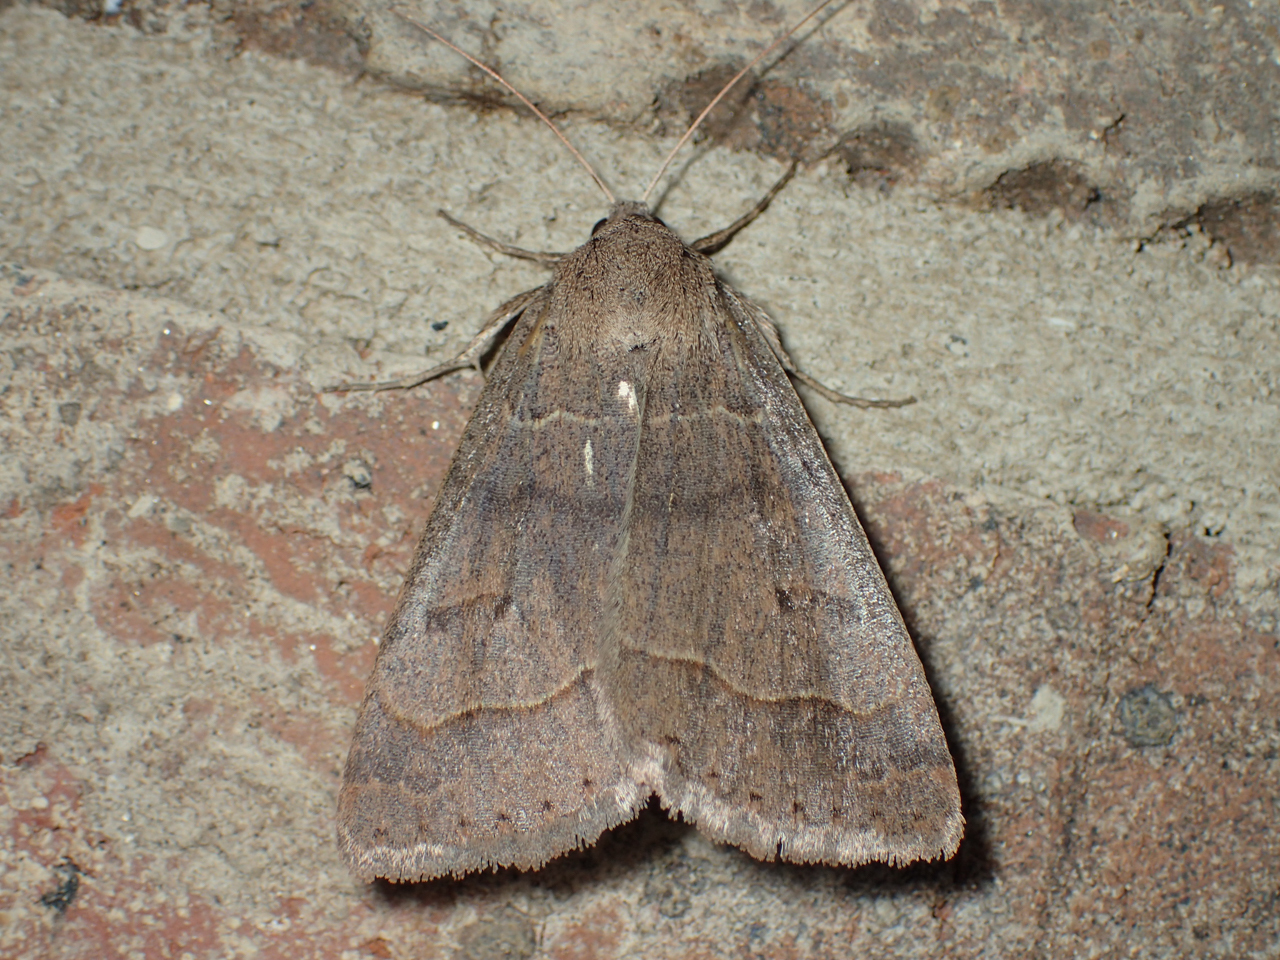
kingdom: Animalia
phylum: Arthropoda
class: Insecta
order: Lepidoptera
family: Erebidae
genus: Phoberia
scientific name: Phoberia atomaris
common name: Common oak moth
